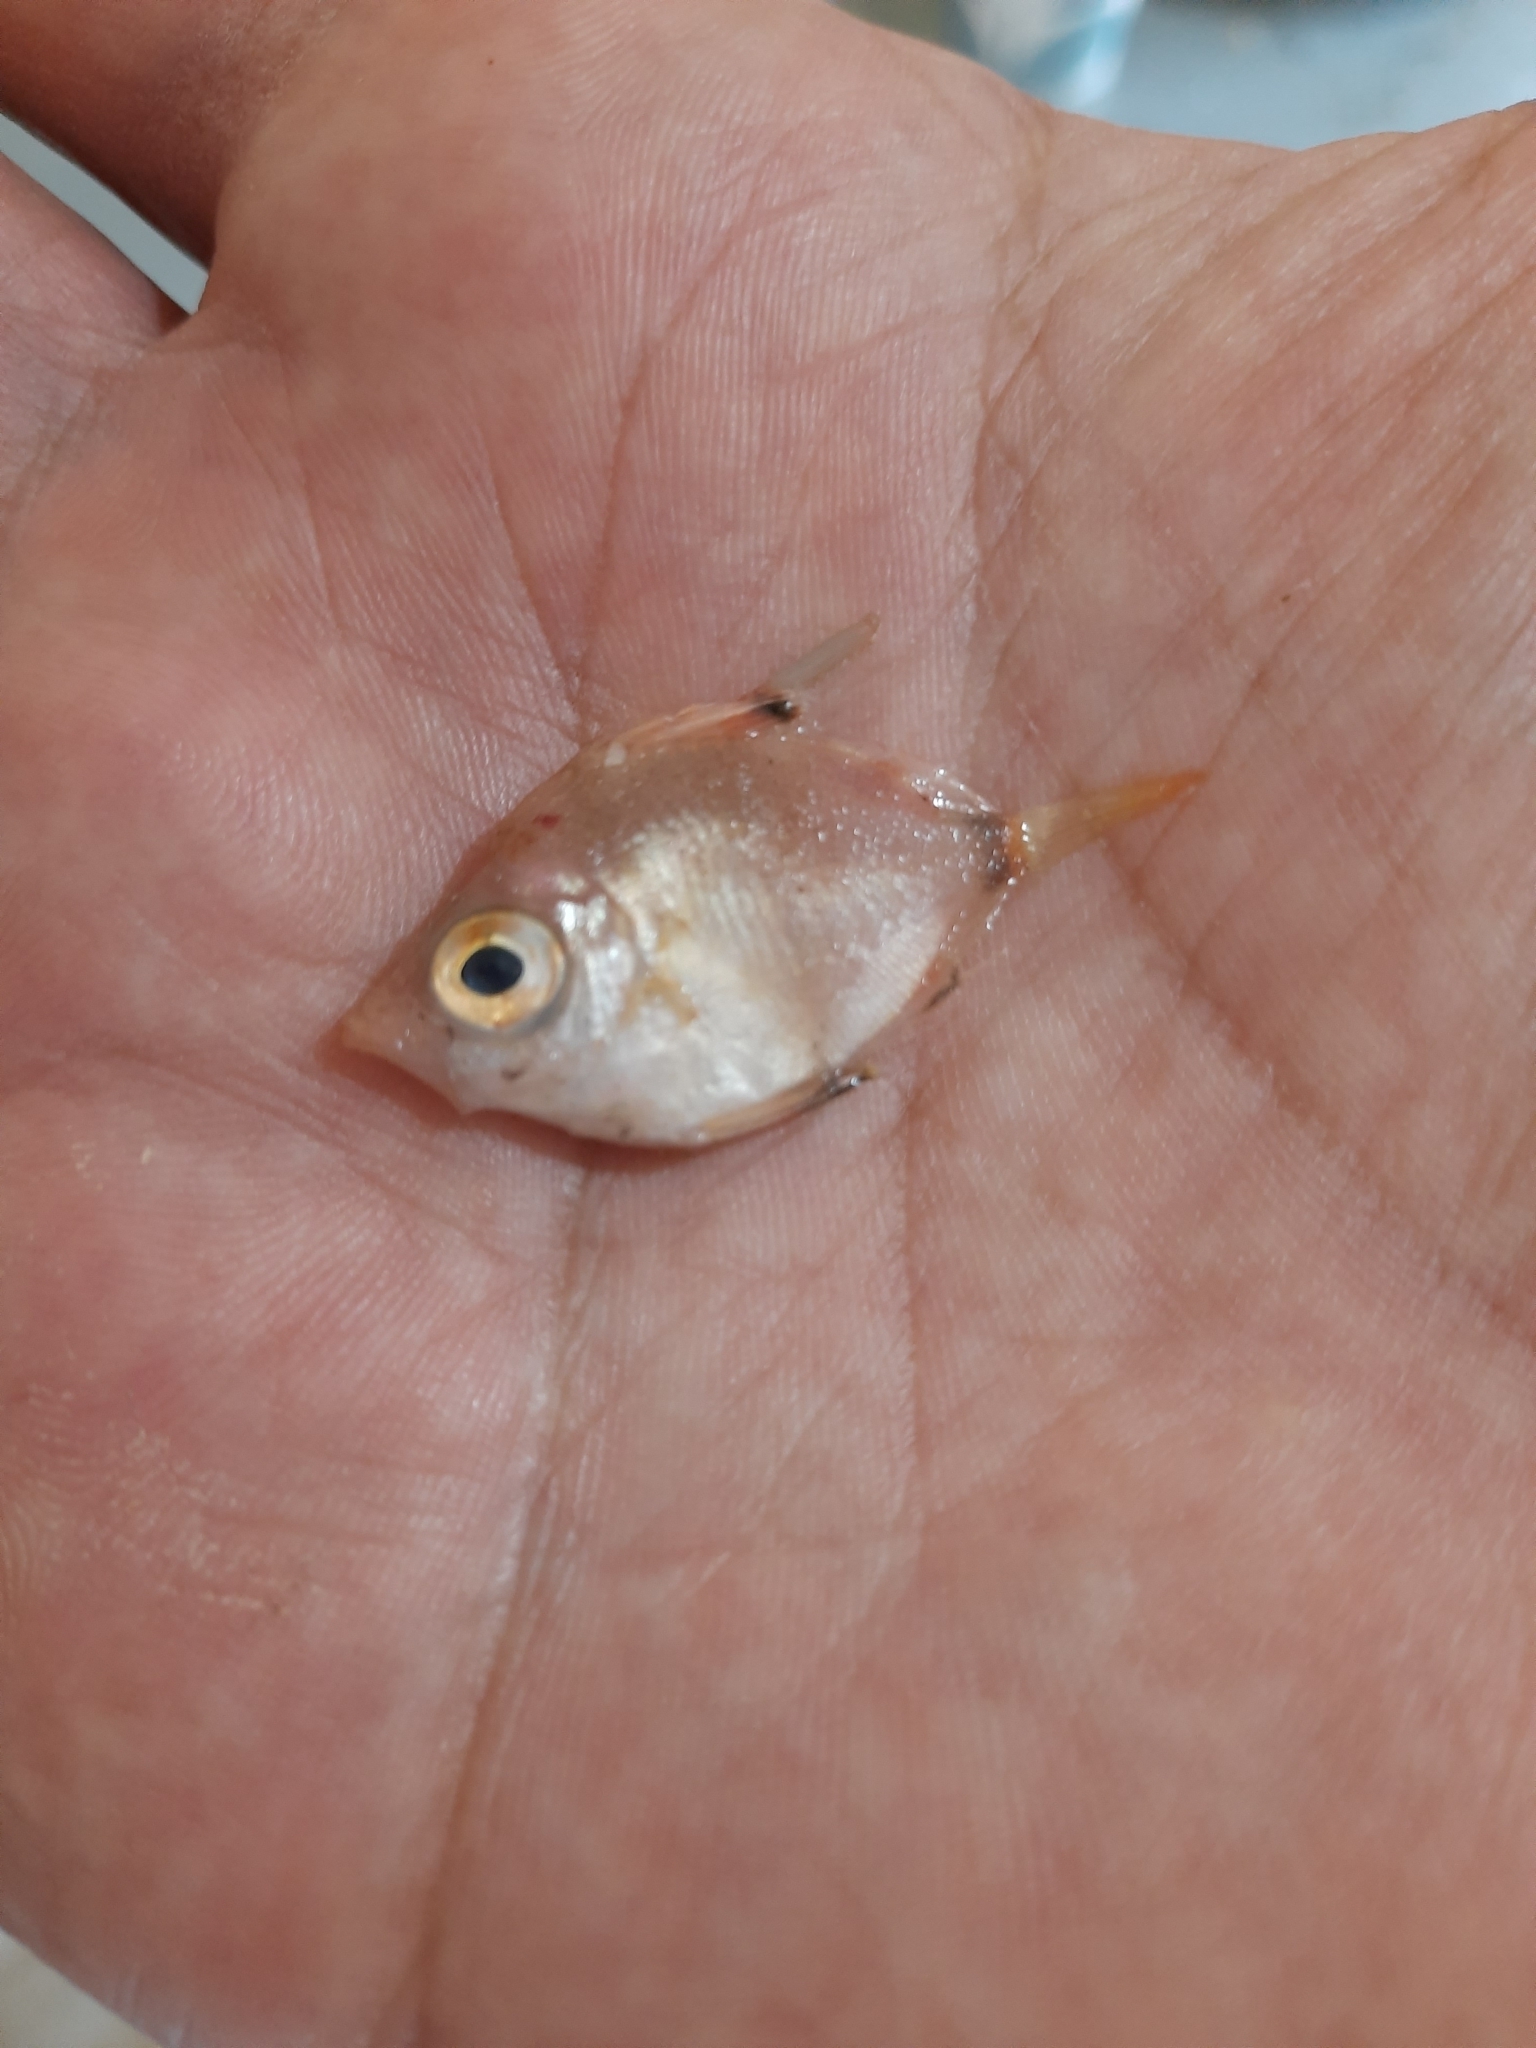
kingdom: Animalia
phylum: Chordata
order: Perciformes
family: Caproidae
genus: Capros
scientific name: Capros aper
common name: Boarfish
